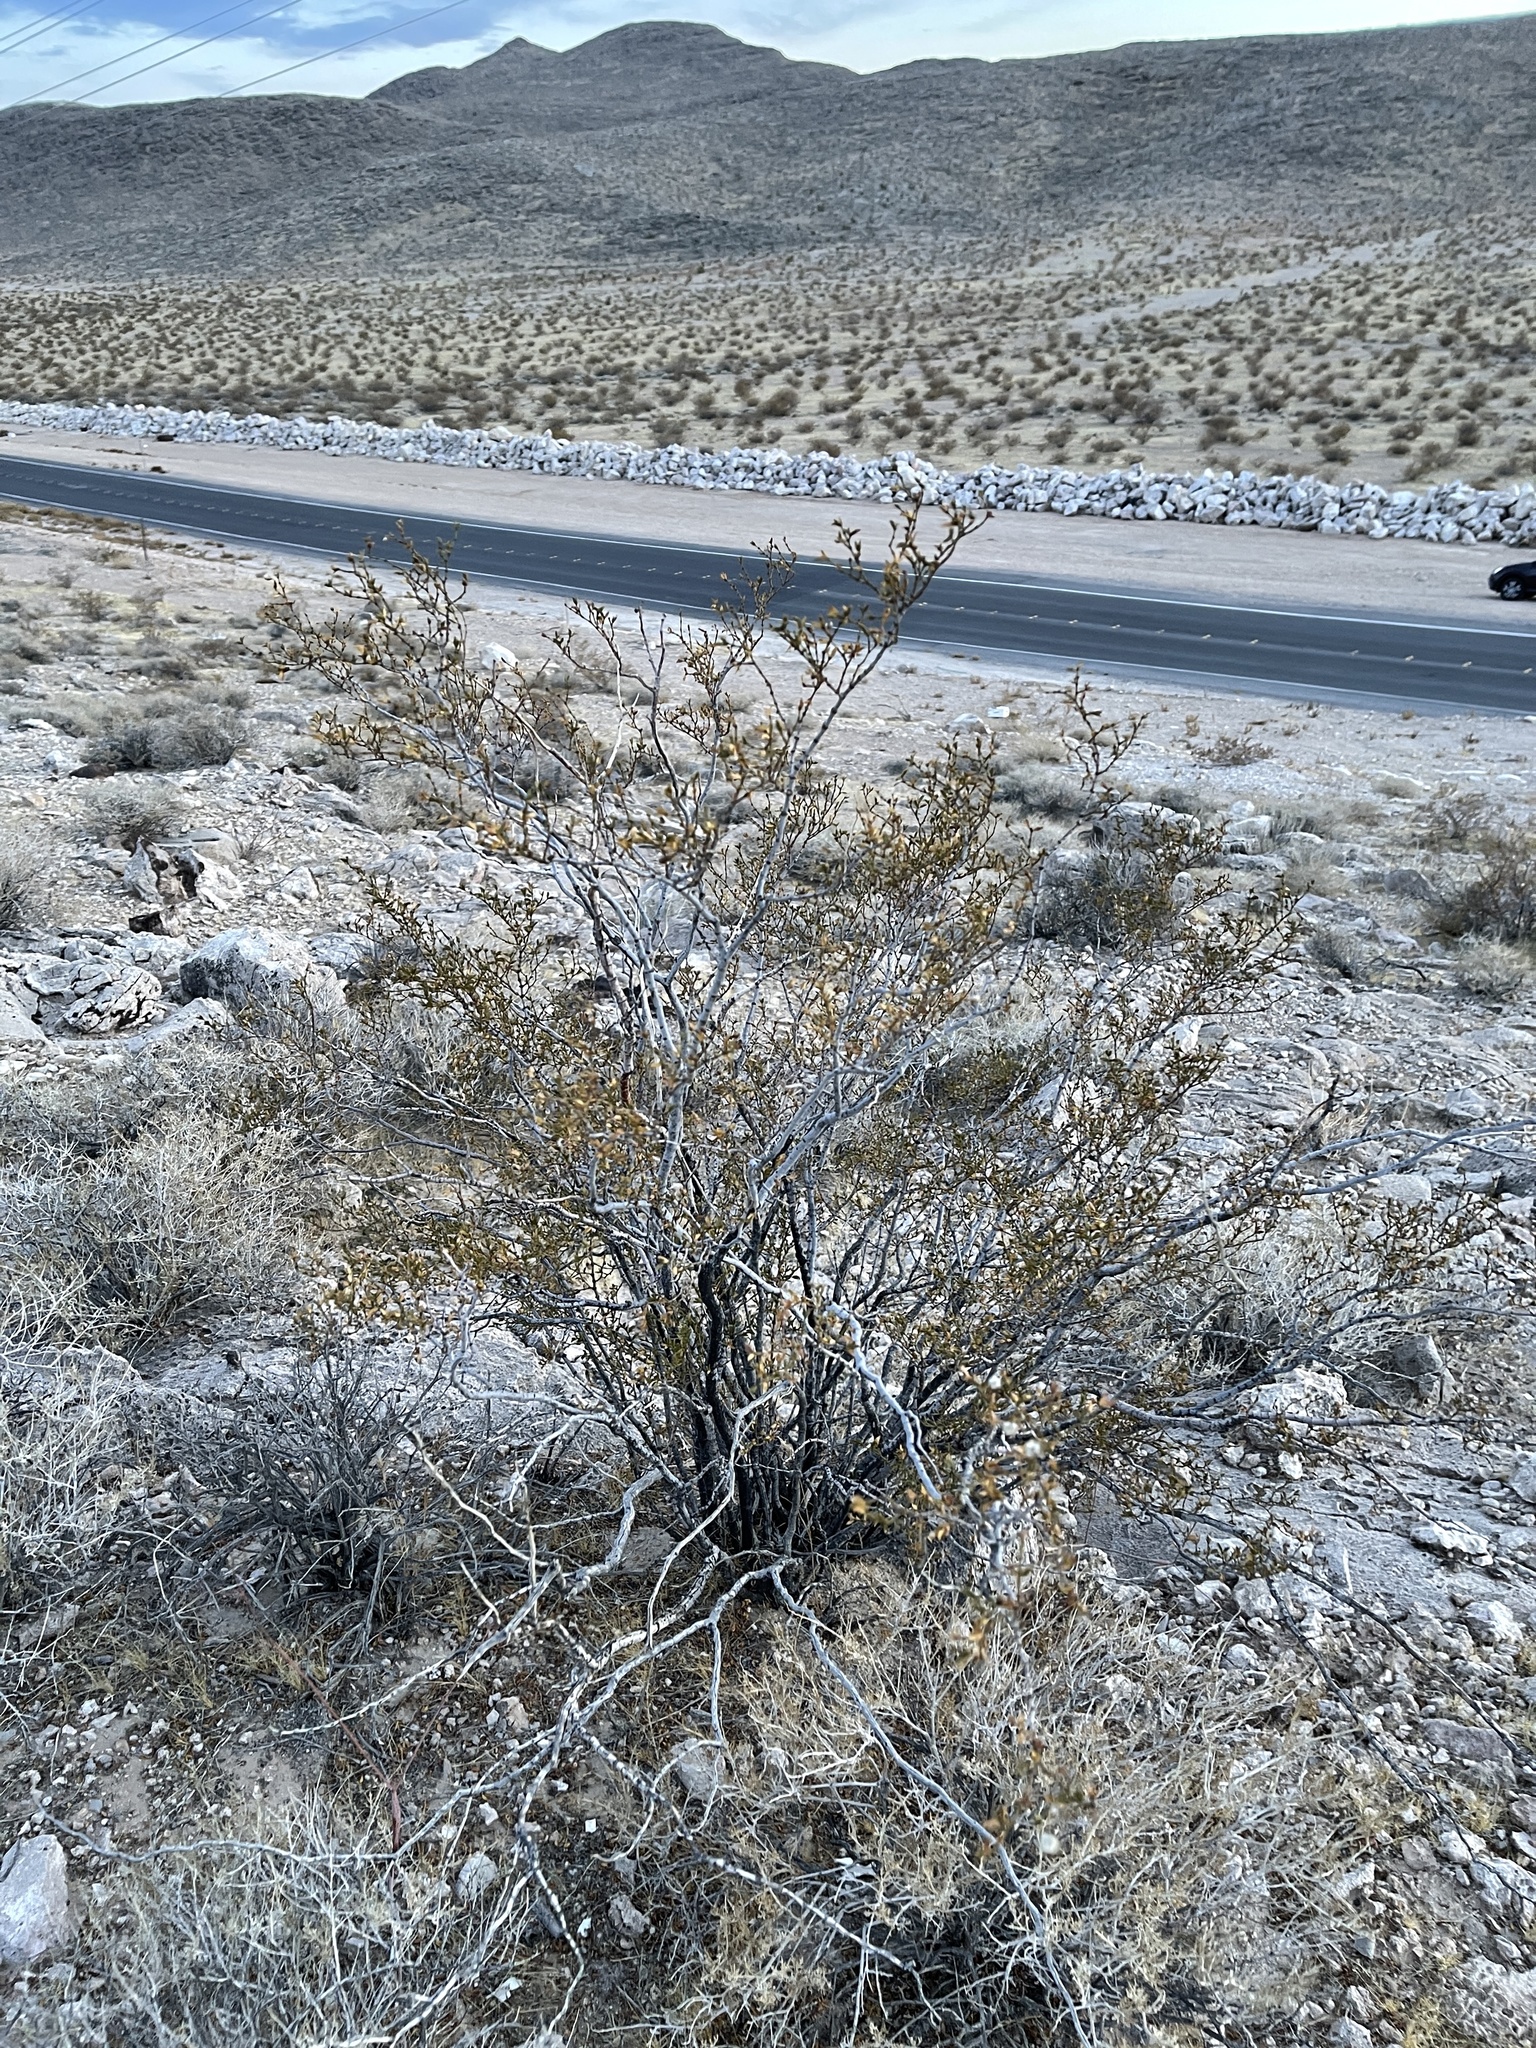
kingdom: Plantae
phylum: Tracheophyta
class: Magnoliopsida
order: Zygophyllales
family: Zygophyllaceae
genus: Larrea
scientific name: Larrea tridentata
